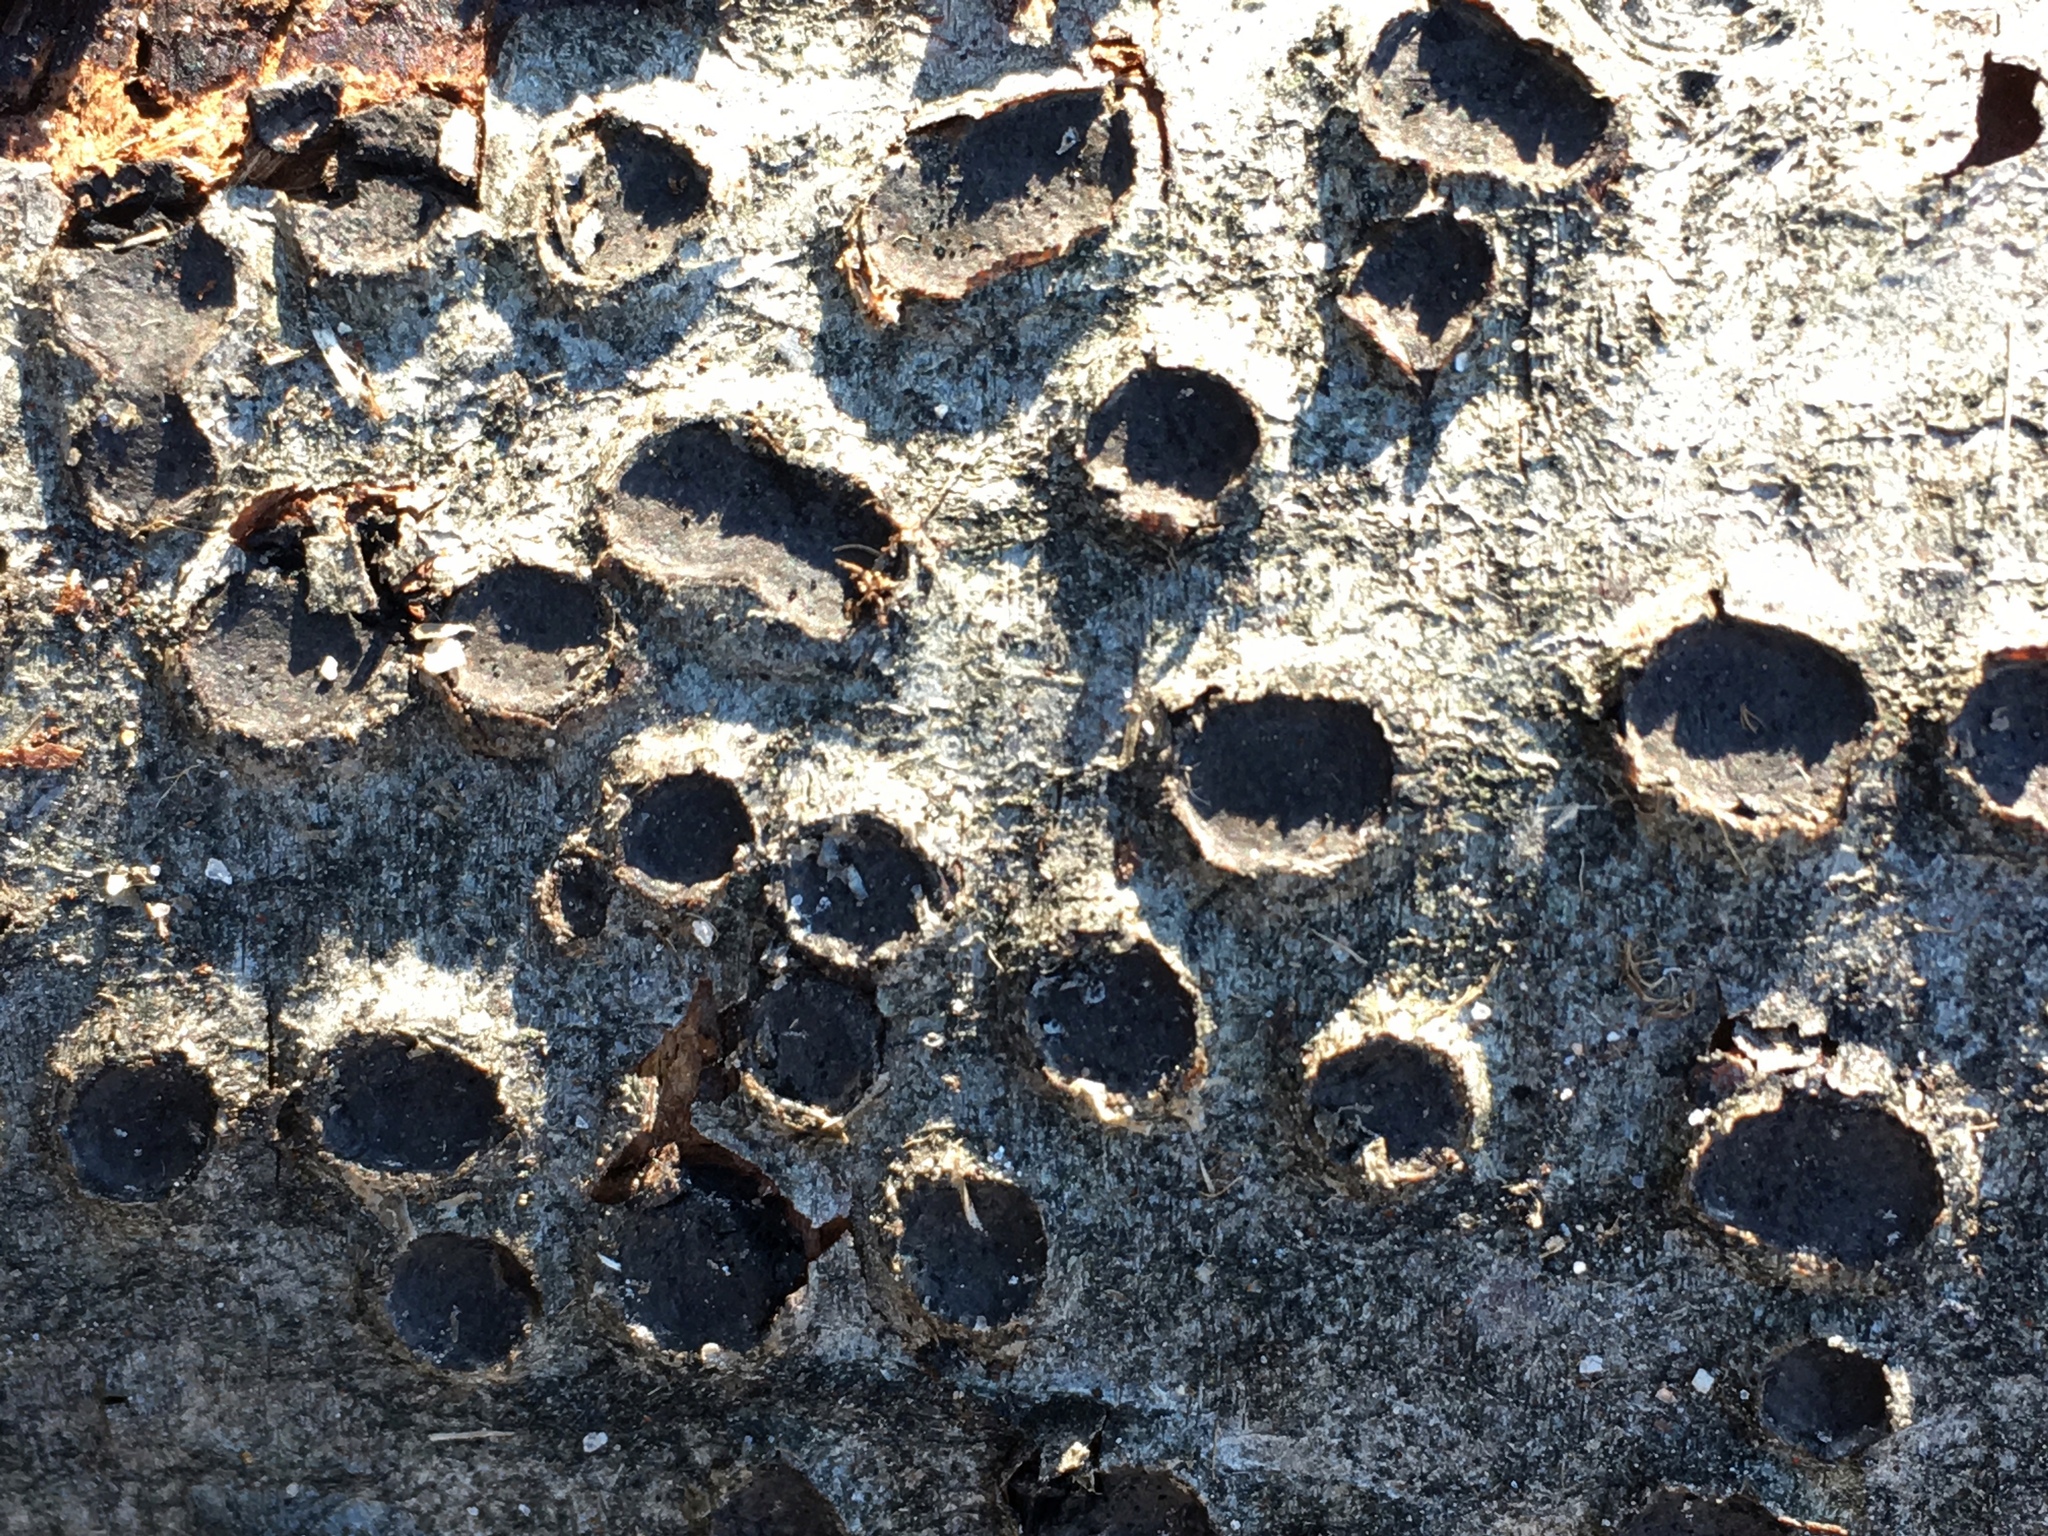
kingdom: Fungi
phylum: Ascomycota
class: Sordariomycetes
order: Xylariales
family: Graphostromataceae
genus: Biscogniauxia
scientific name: Biscogniauxia marginata
